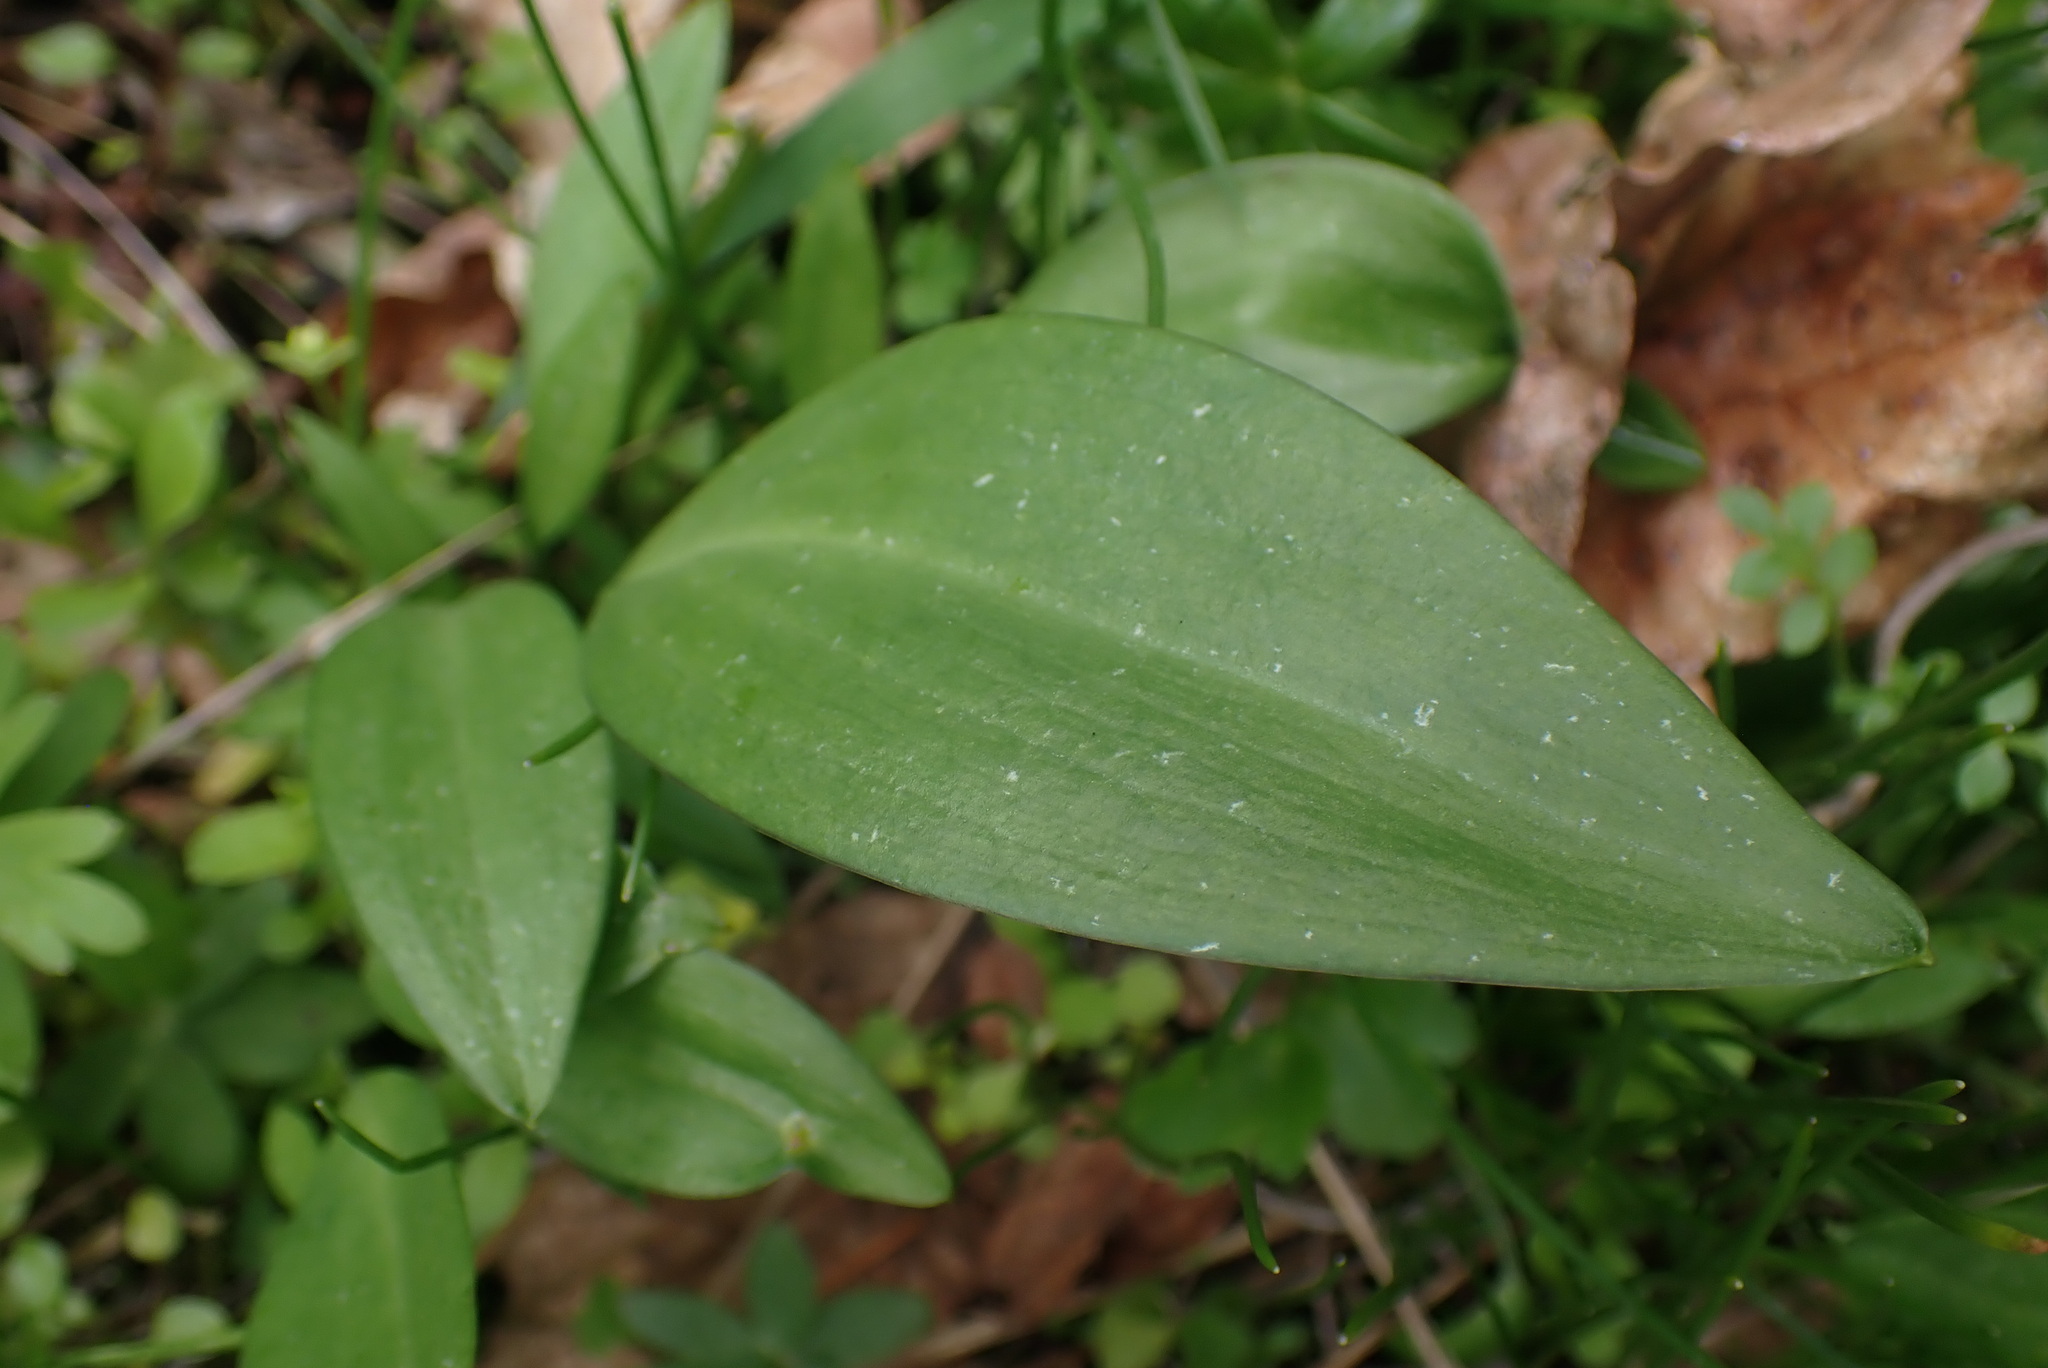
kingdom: Plantae
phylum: Tracheophyta
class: Liliopsida
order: Liliales
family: Liliaceae
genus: Fritillaria
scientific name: Fritillaria affinis
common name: Ojai fritillary
